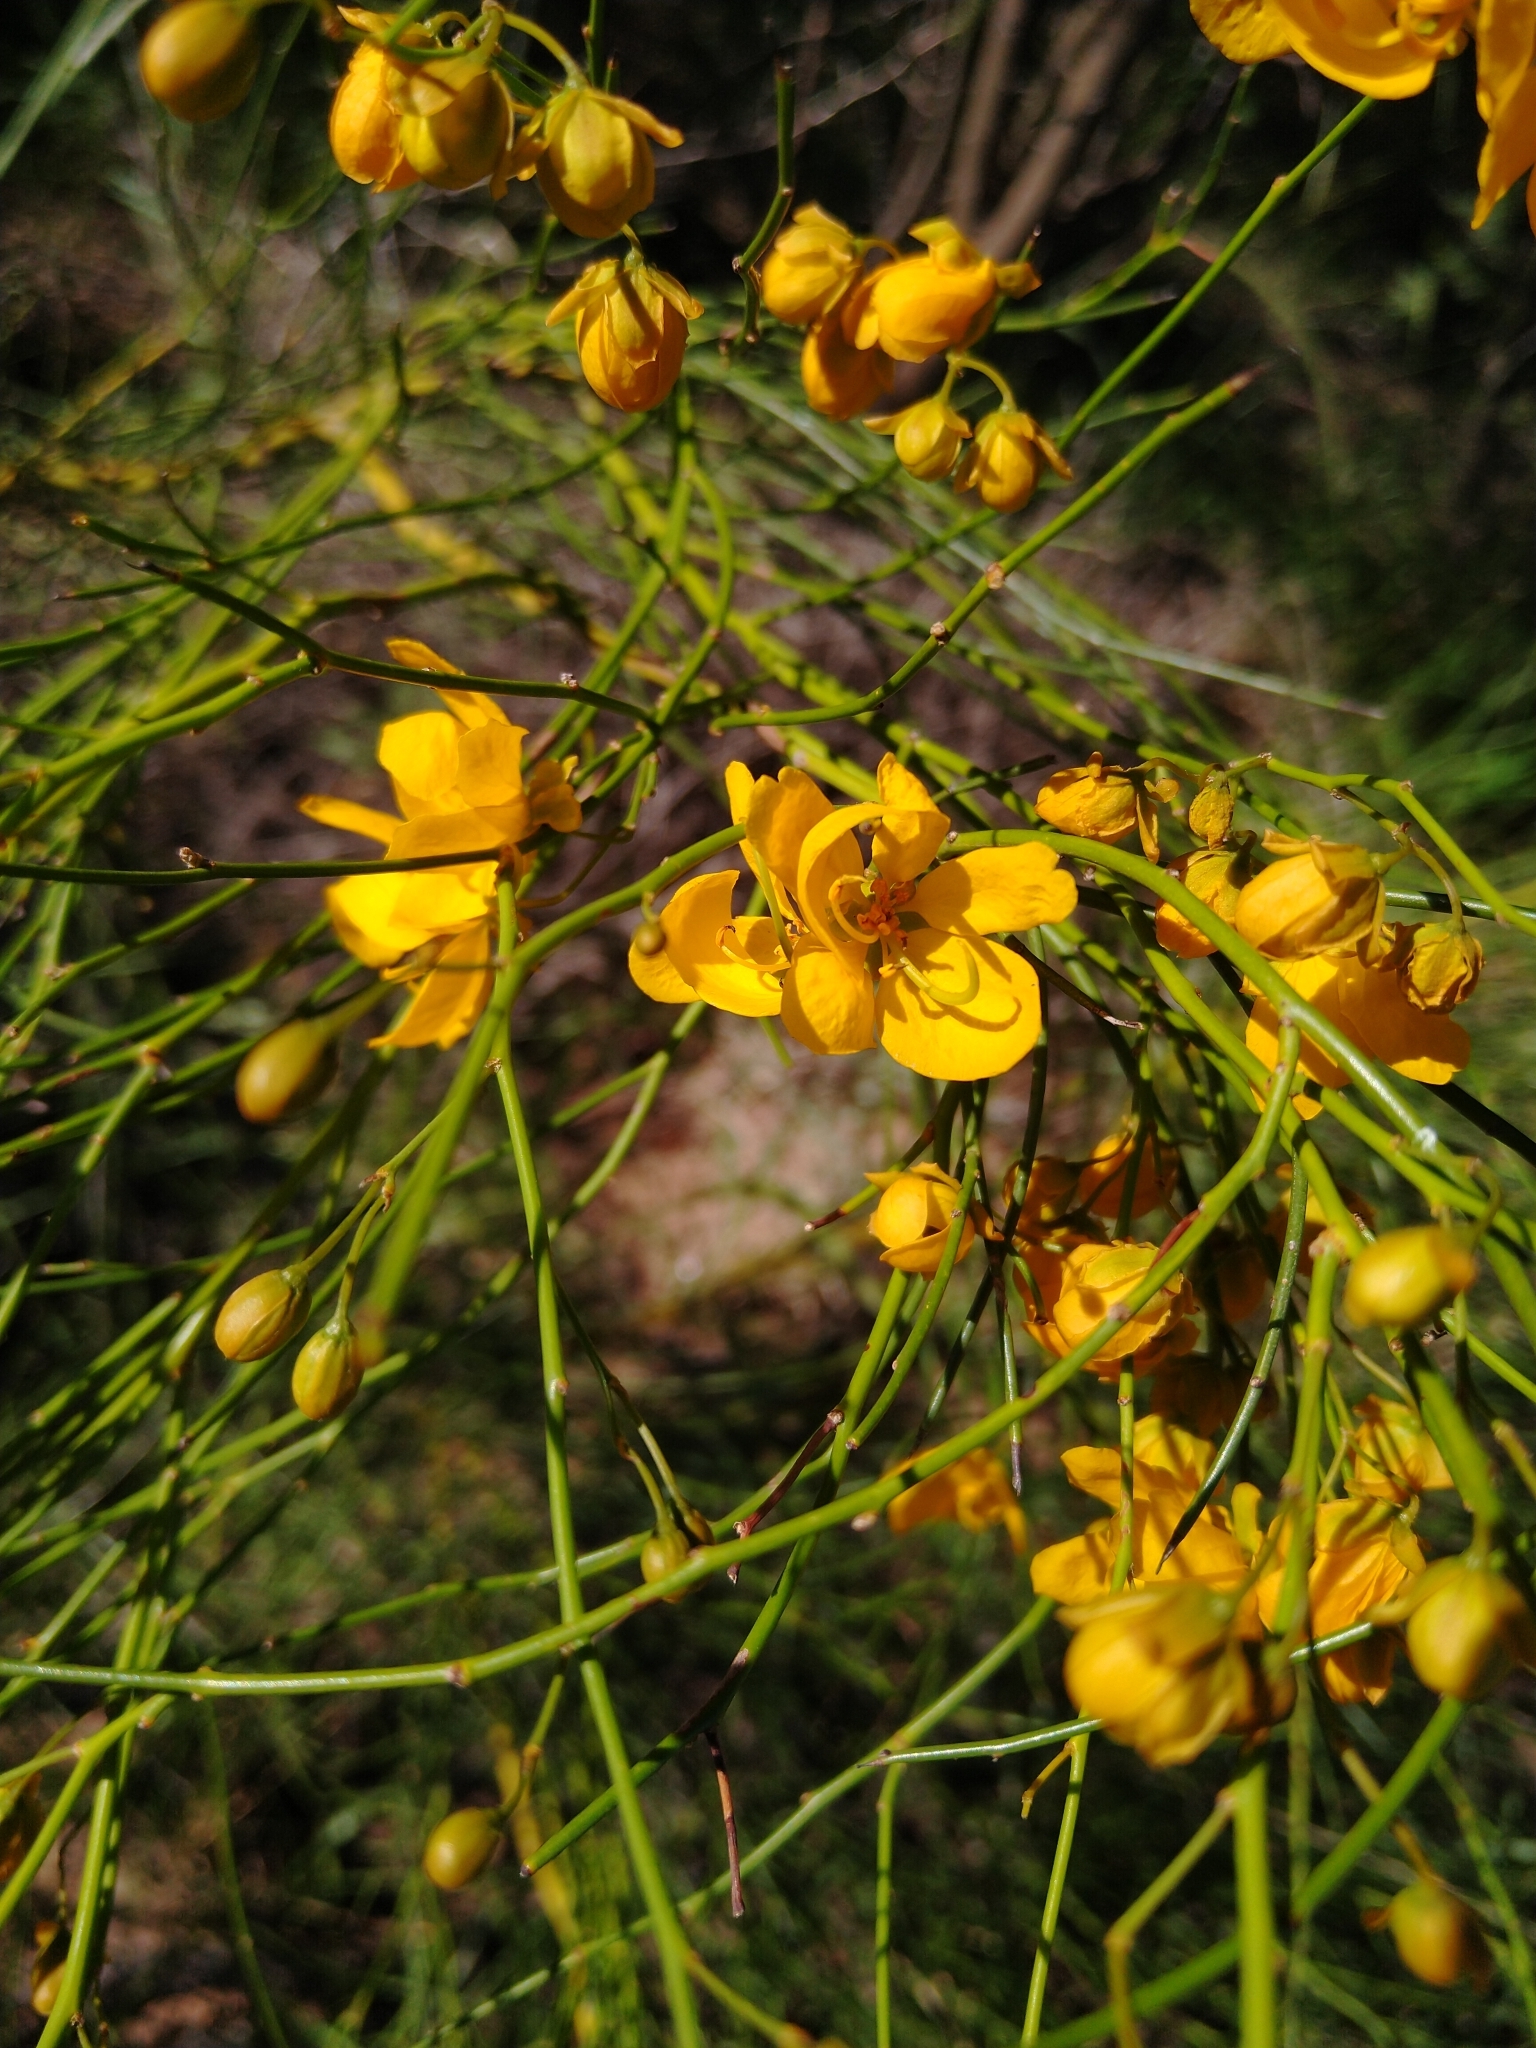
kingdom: Plantae
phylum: Tracheophyta
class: Magnoliopsida
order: Fabales
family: Fabaceae
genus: Senna
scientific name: Senna aphylla
